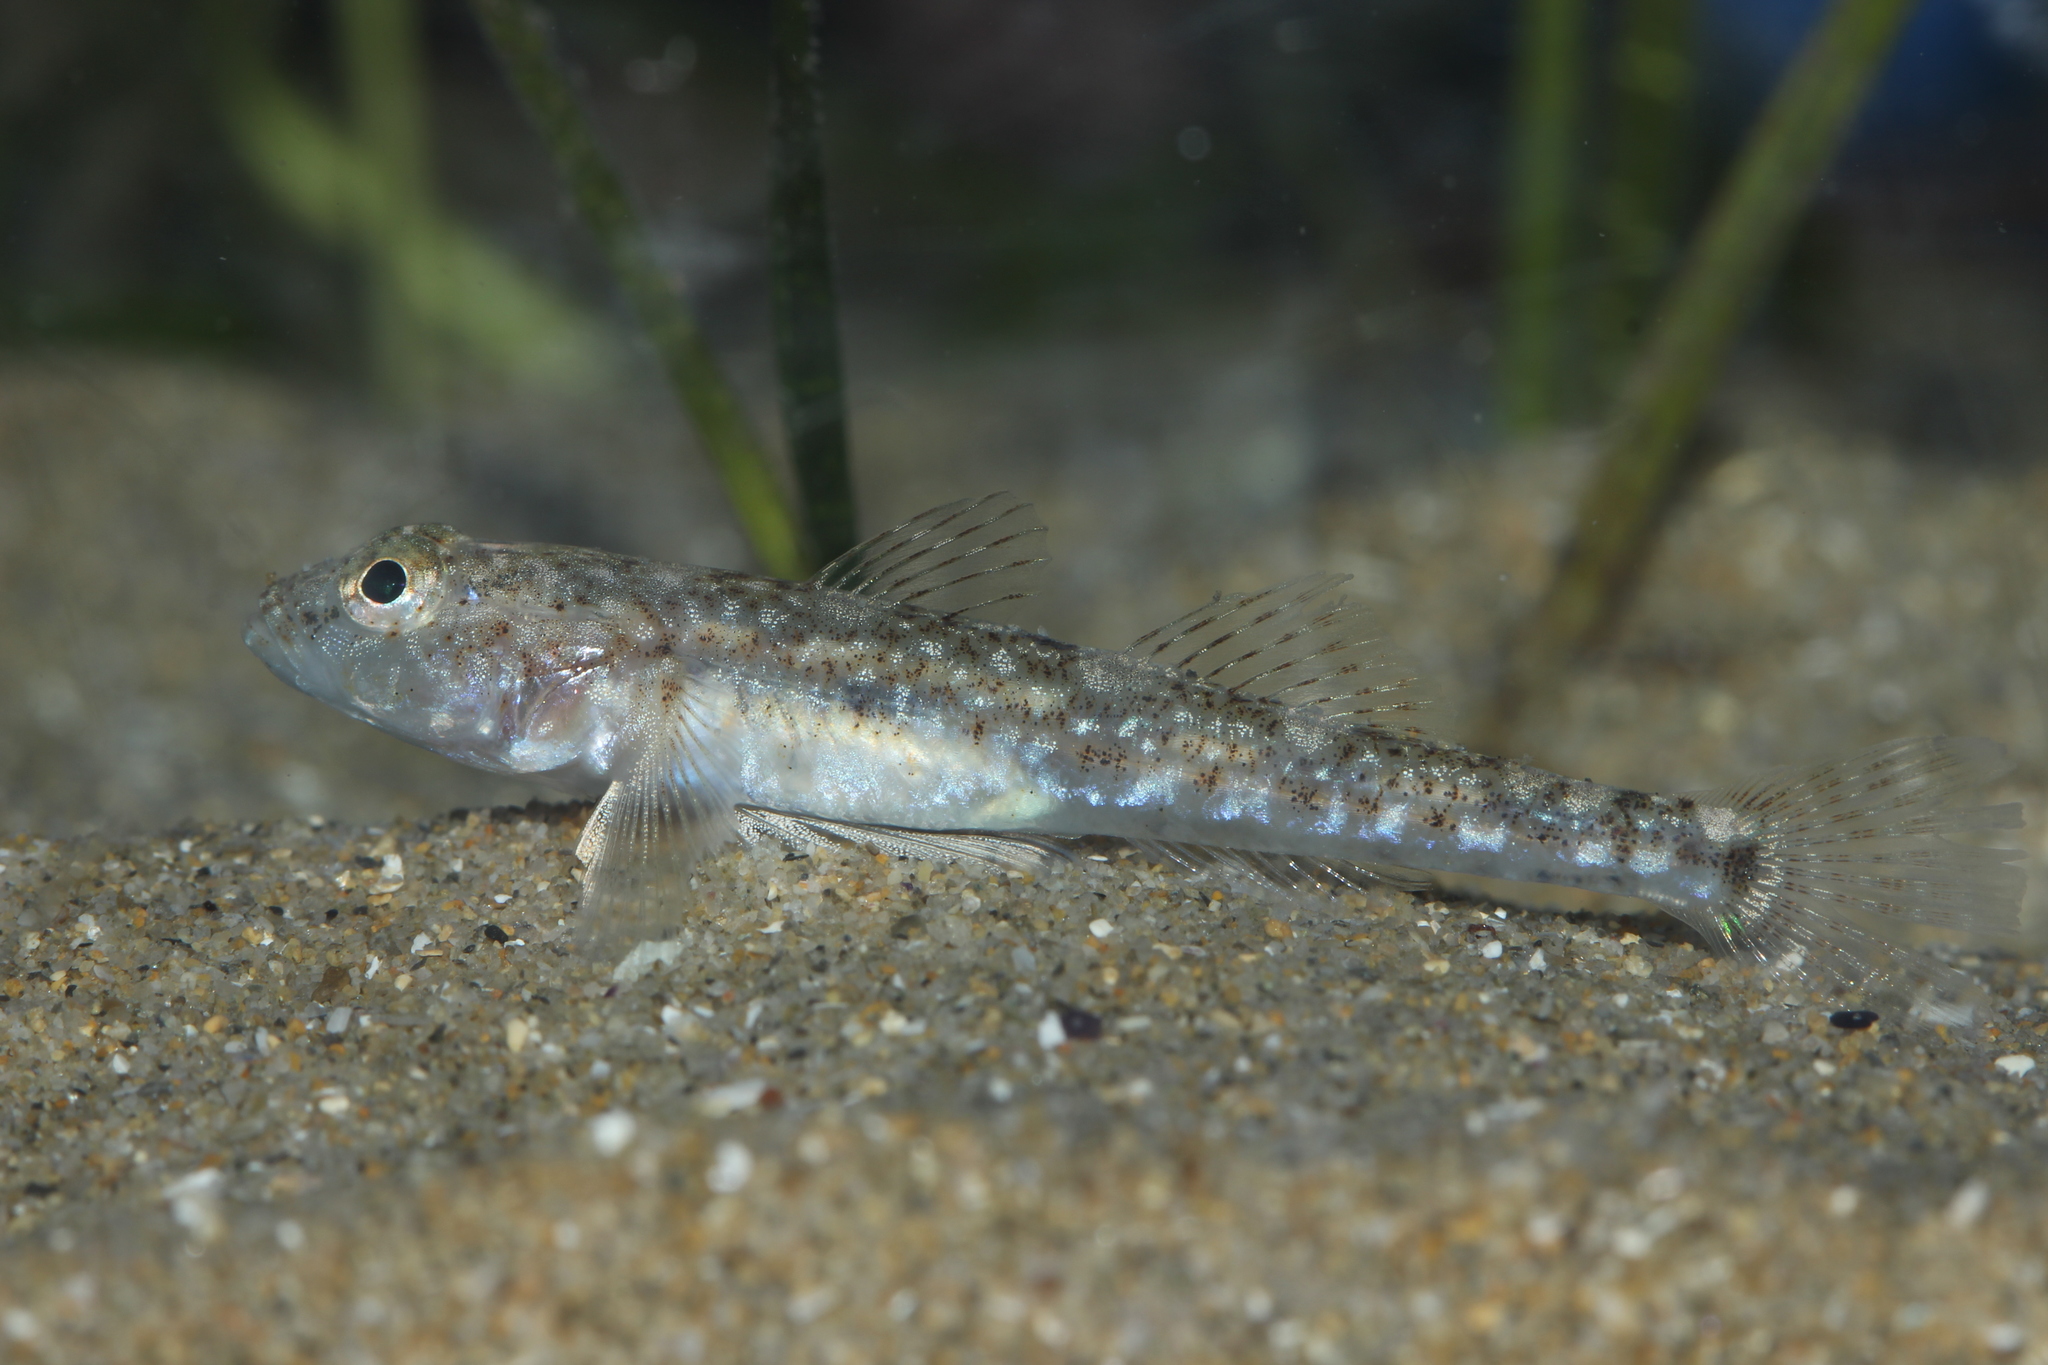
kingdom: Animalia
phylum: Chordata
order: Perciformes
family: Gobiidae
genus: Pomatoschistus
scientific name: Pomatoschistus marmoratus
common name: Marbled goby
